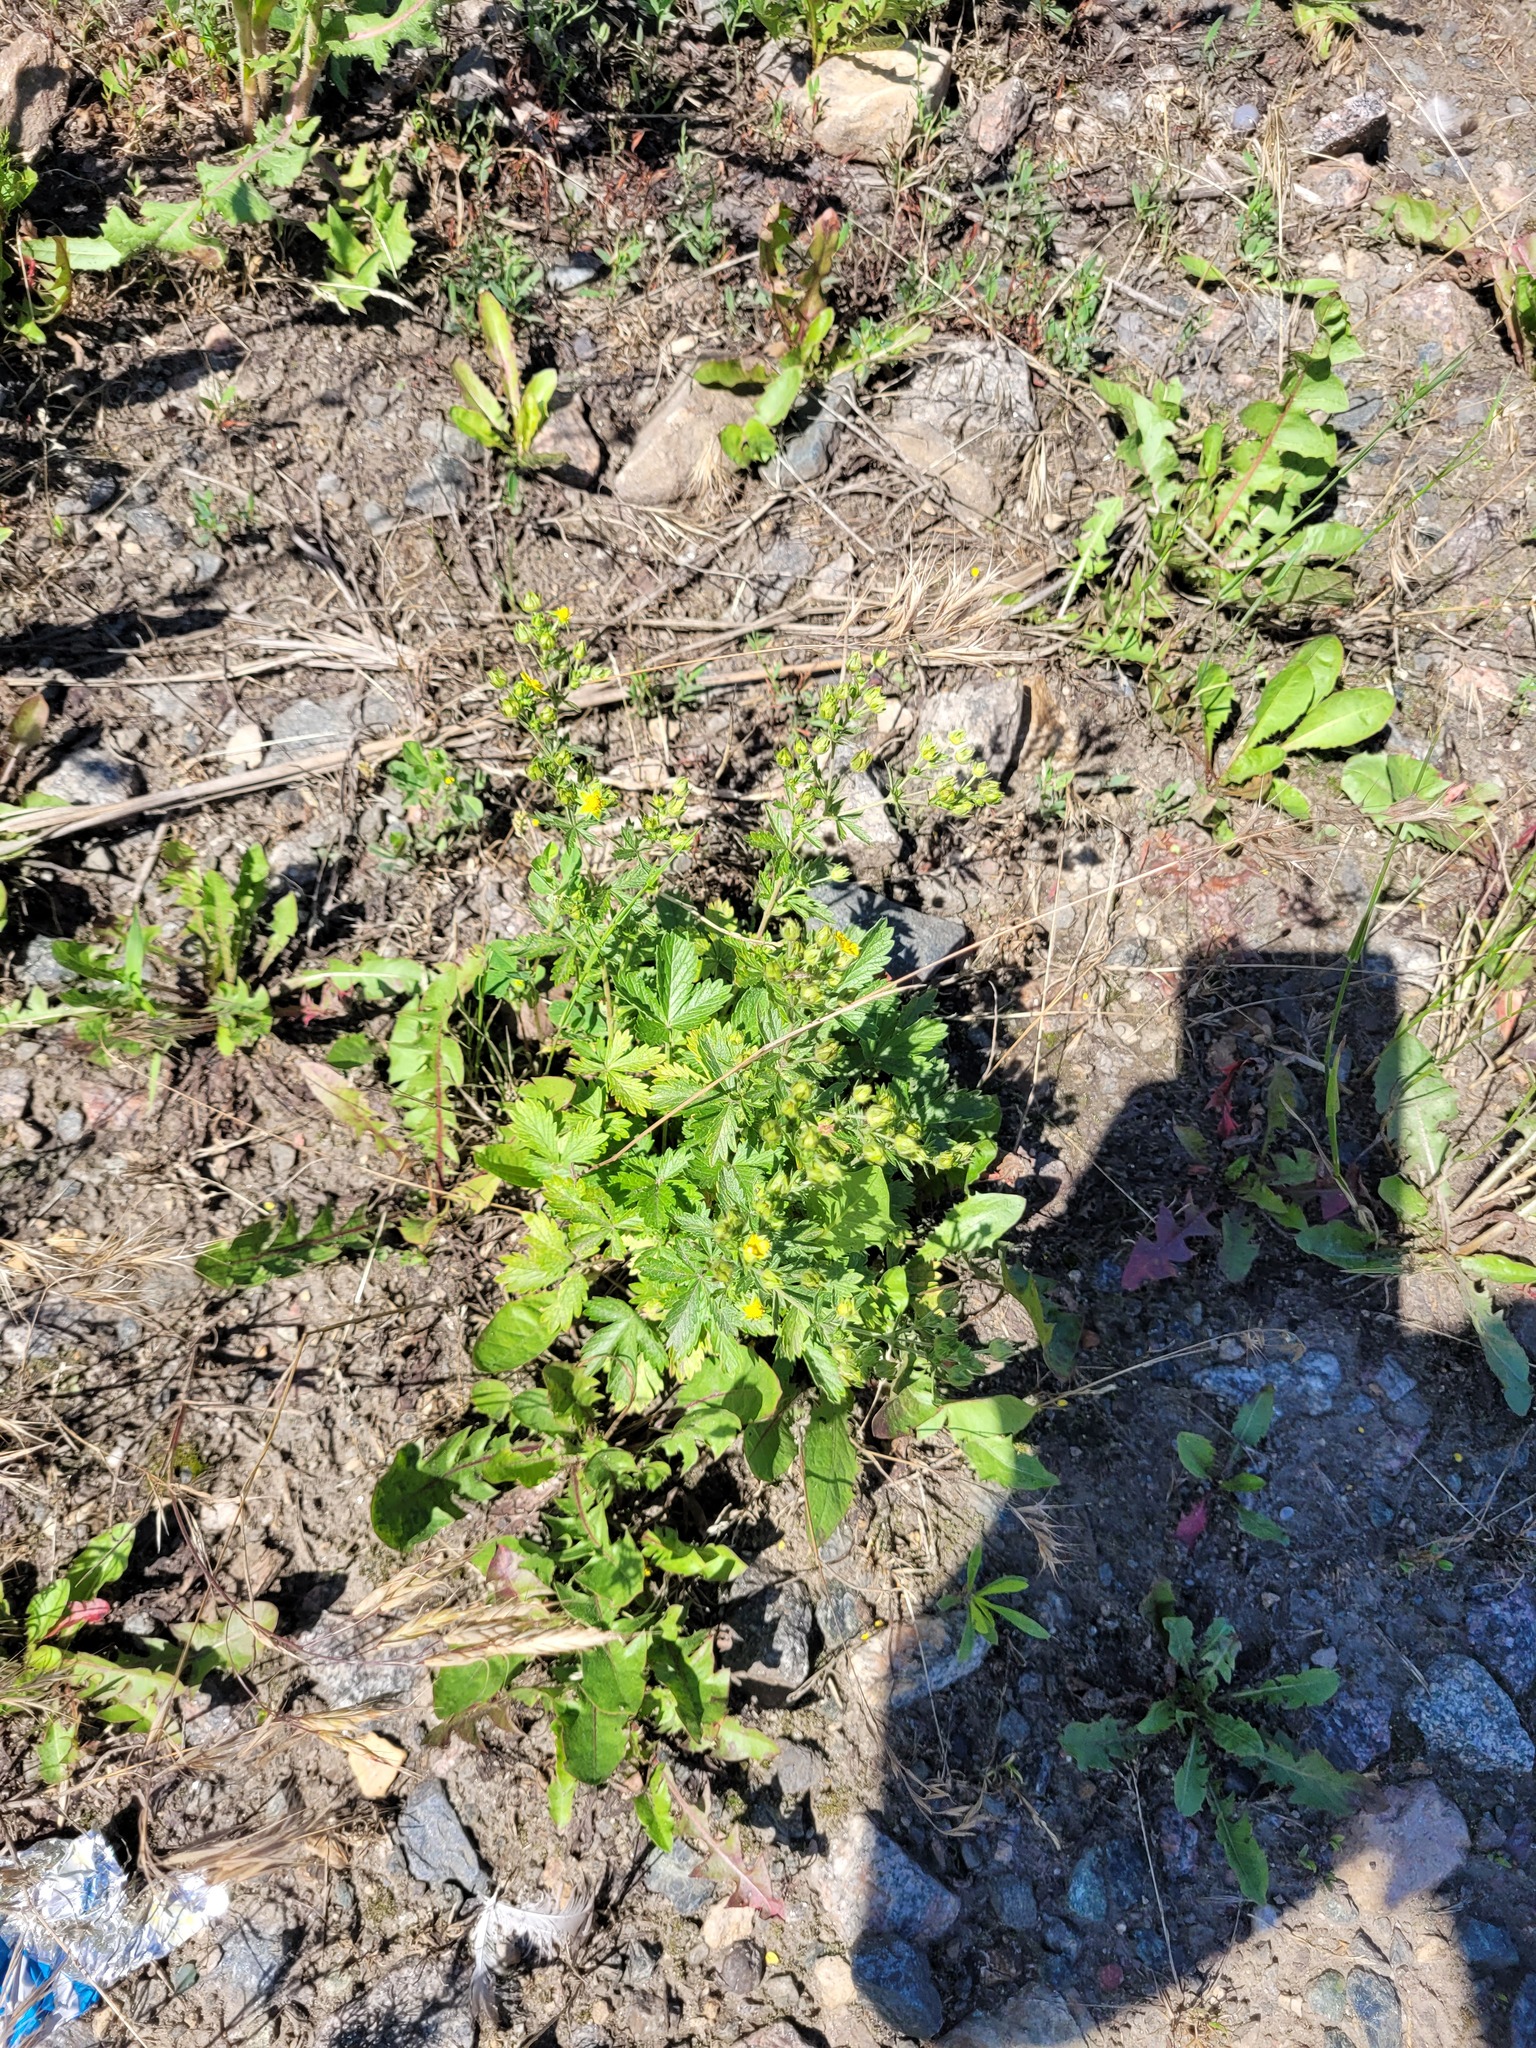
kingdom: Plantae
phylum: Tracheophyta
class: Magnoliopsida
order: Rosales
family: Rosaceae
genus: Potentilla
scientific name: Potentilla intermedia
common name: Downy cinquefoil
